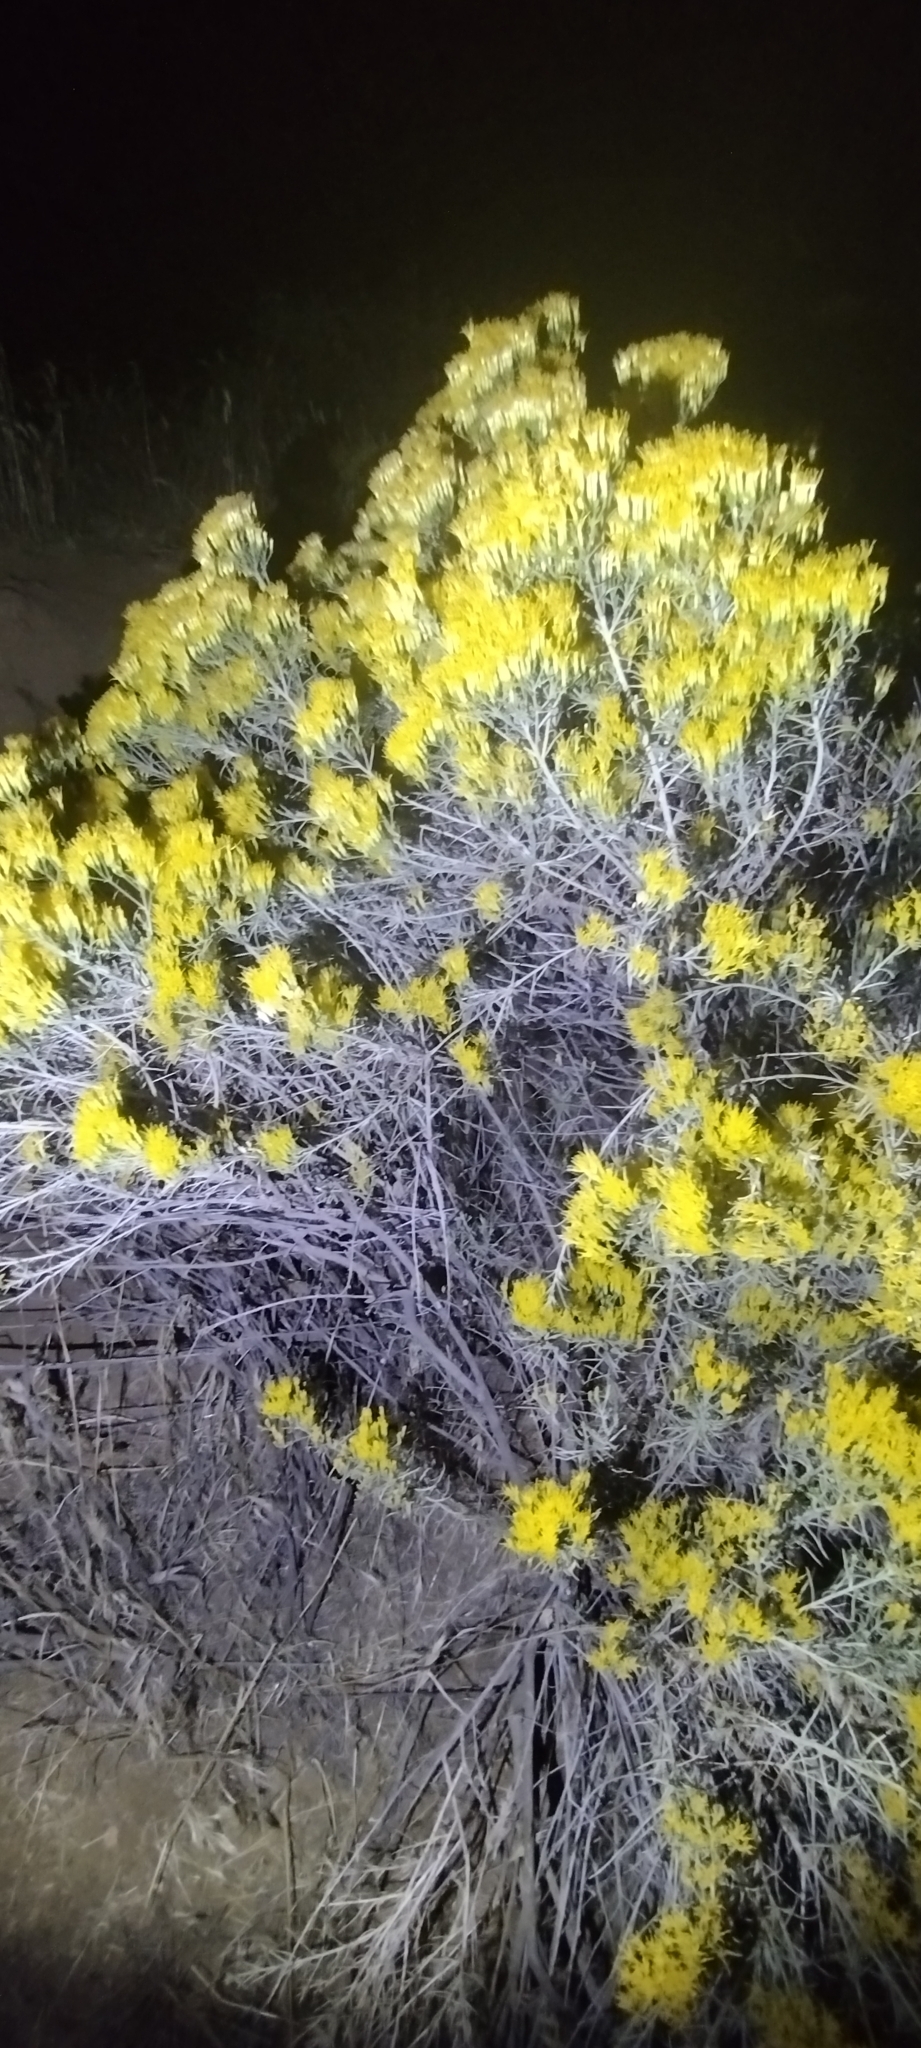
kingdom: Plantae
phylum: Tracheophyta
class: Magnoliopsida
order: Asterales
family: Asteraceae
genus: Ericameria
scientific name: Ericameria nauseosa
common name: Rubber rabbitbrush
